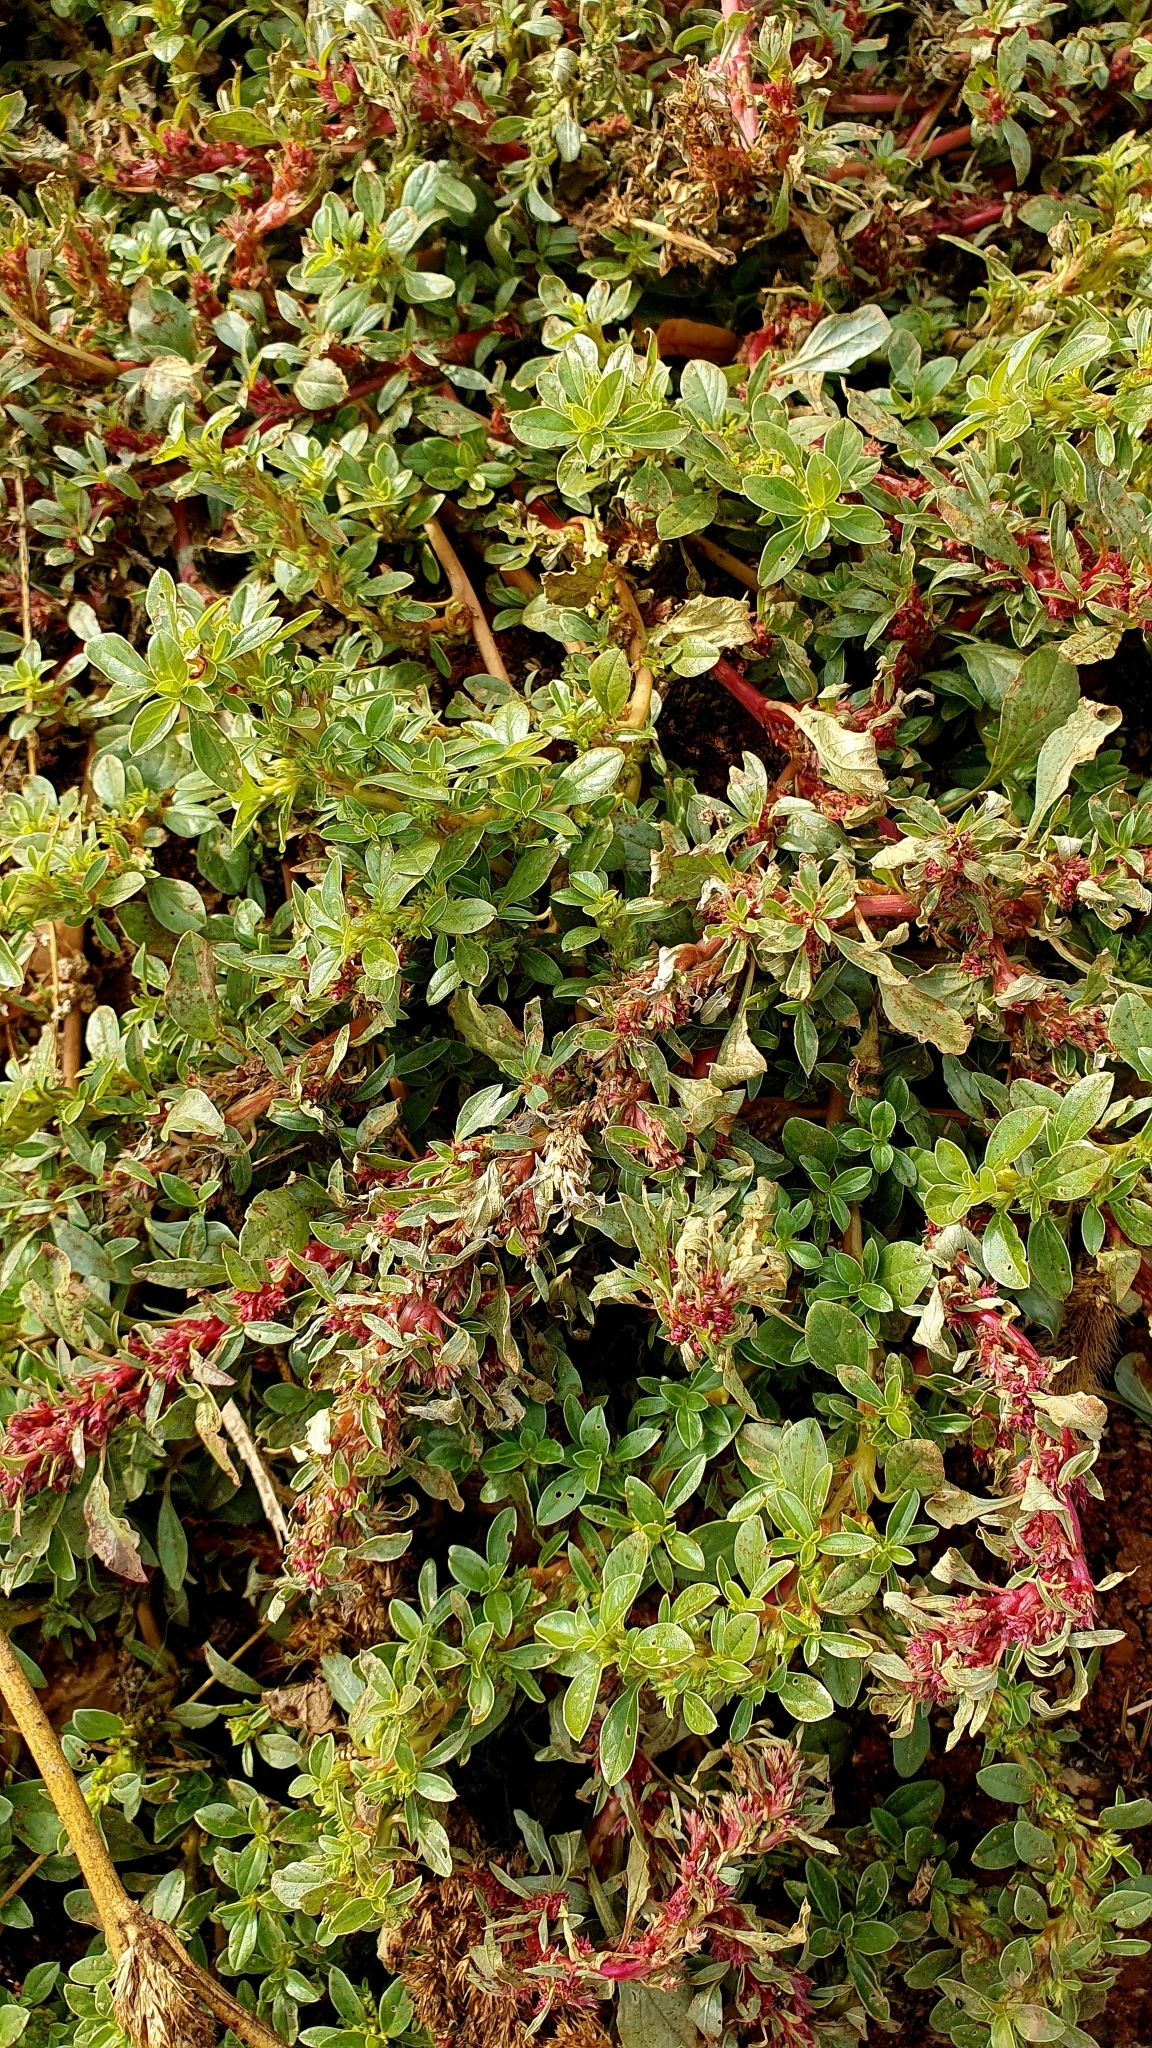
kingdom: Plantae
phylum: Tracheophyta
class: Magnoliopsida
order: Caryophyllales
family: Amaranthaceae
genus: Amaranthus
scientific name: Amaranthus blitoides
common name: Prostrate pigweed
